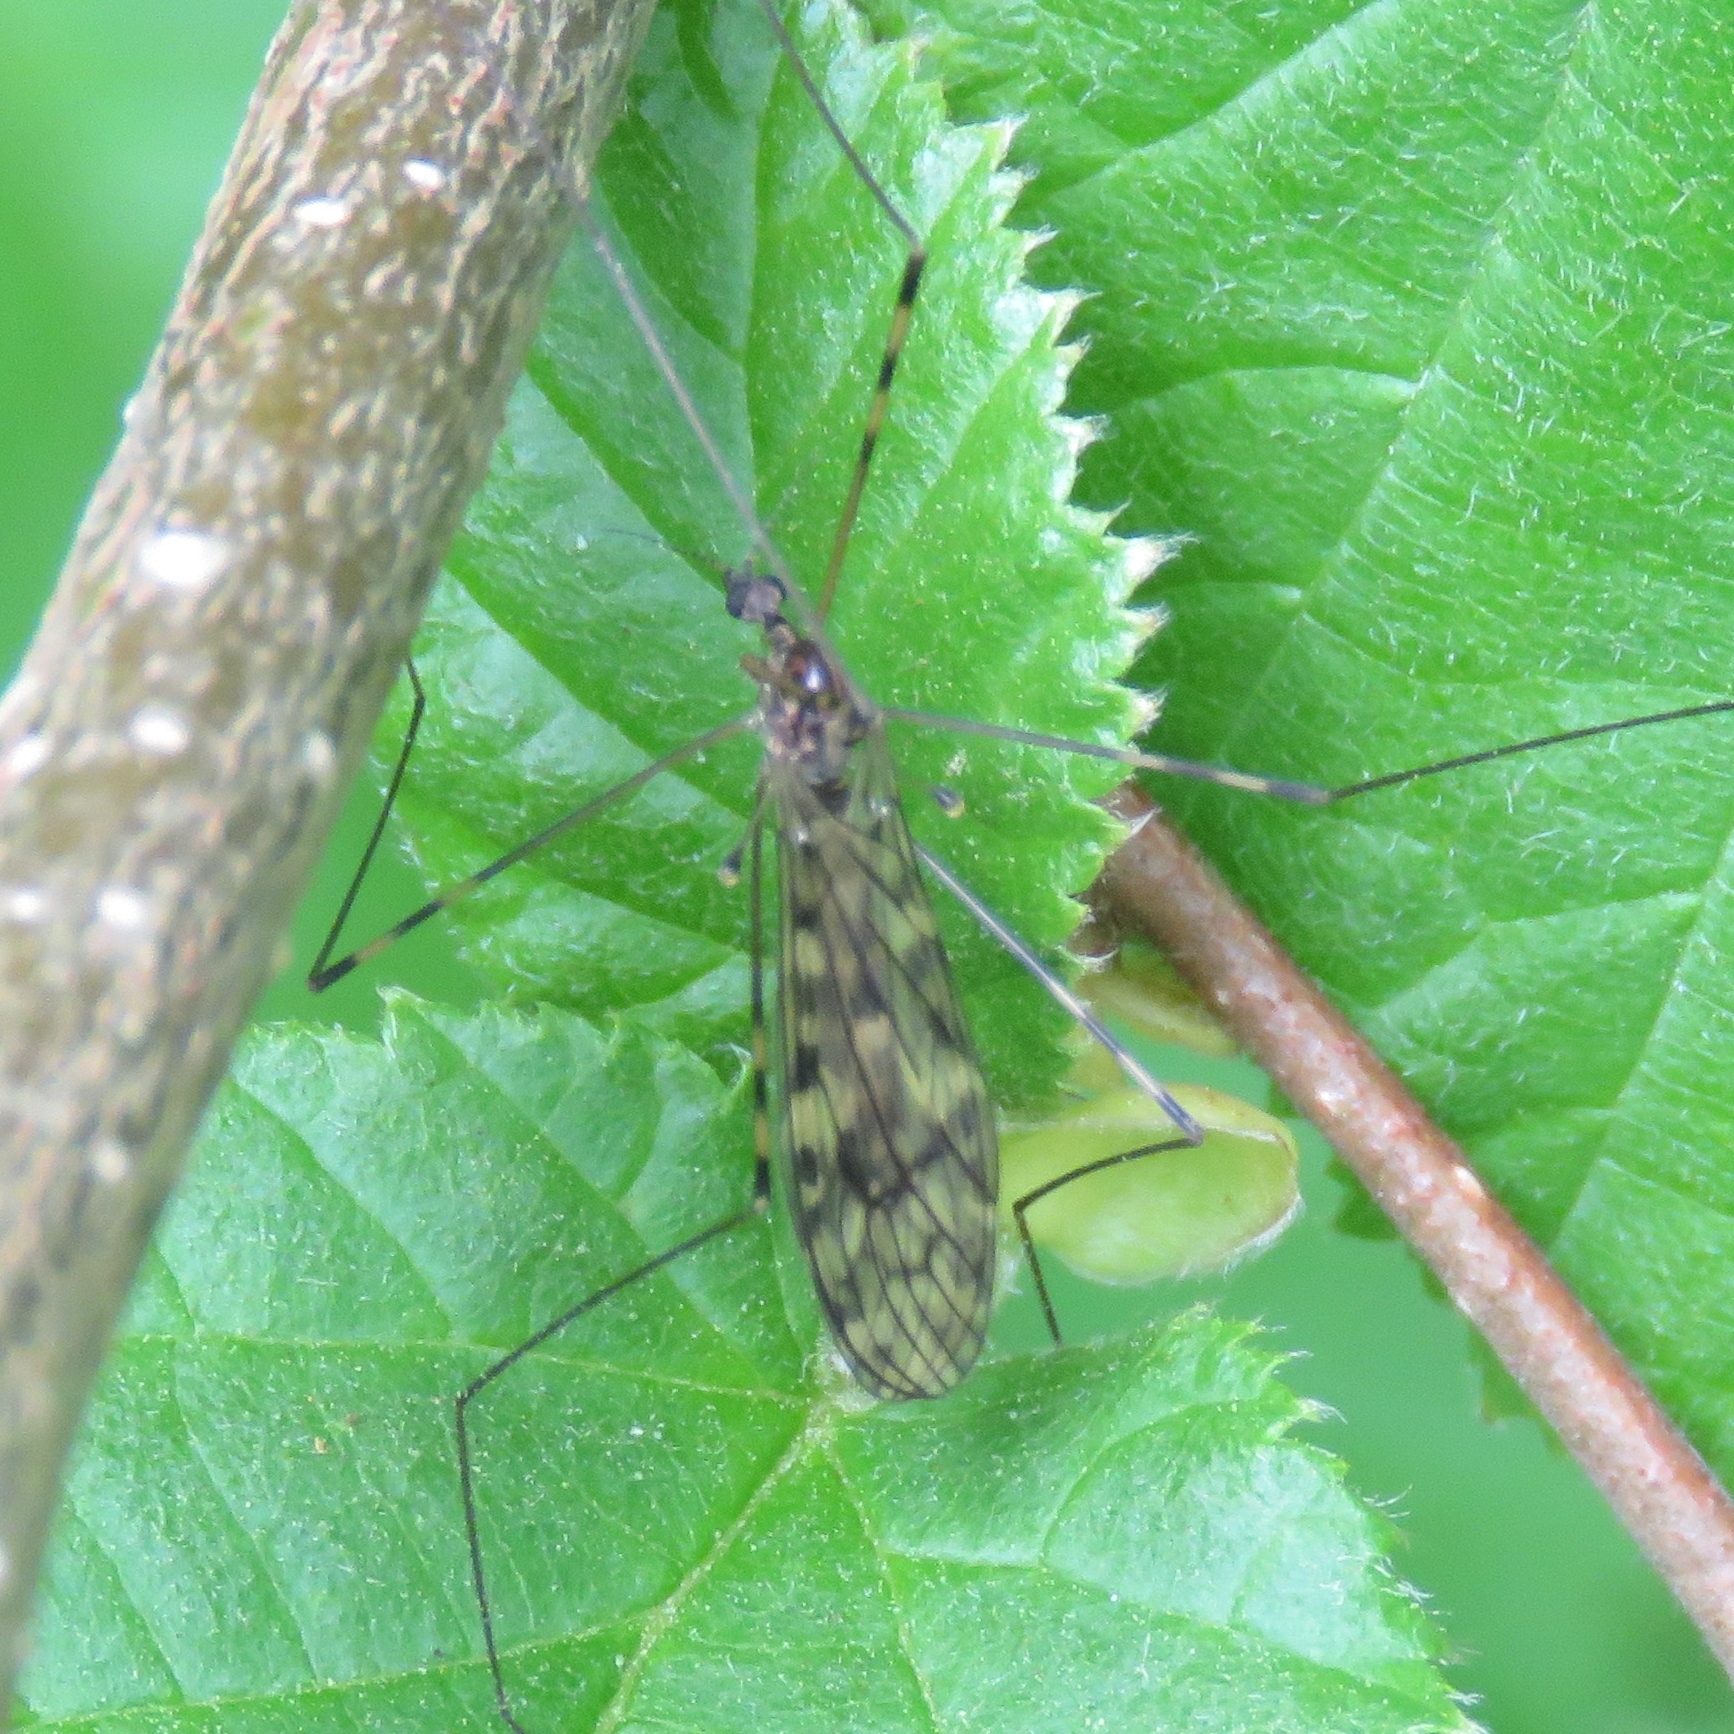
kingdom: Animalia
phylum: Arthropoda
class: Insecta
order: Diptera
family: Limoniidae
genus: Limonia
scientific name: Limonia nubeculosa
